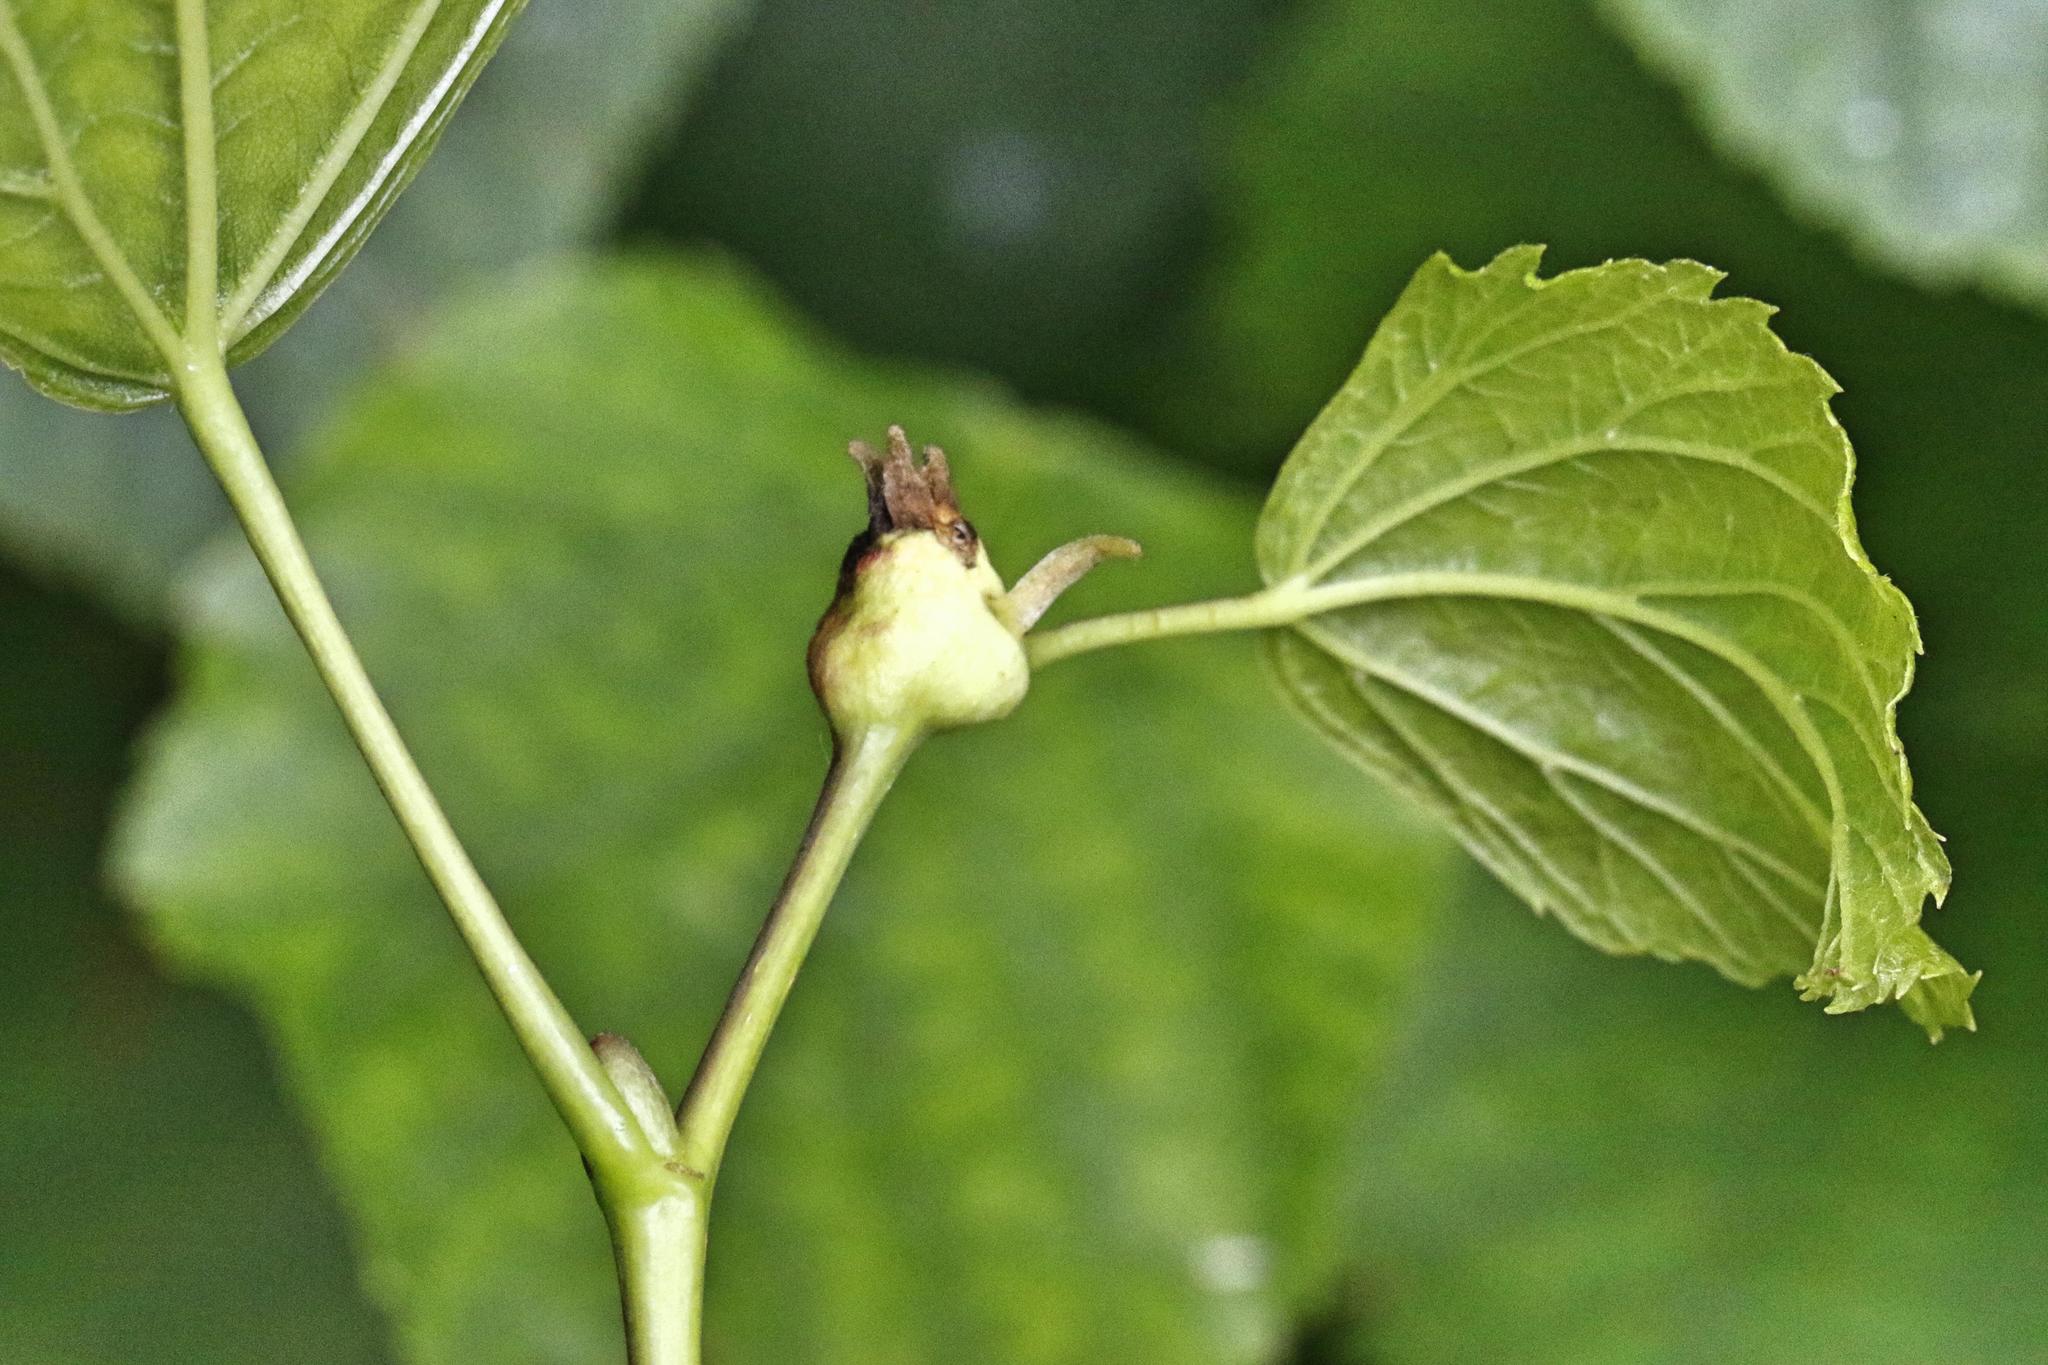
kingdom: Animalia
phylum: Arthropoda
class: Insecta
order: Diptera
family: Cecidomyiidae
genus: Contarinia
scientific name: Contarinia tiliarum
